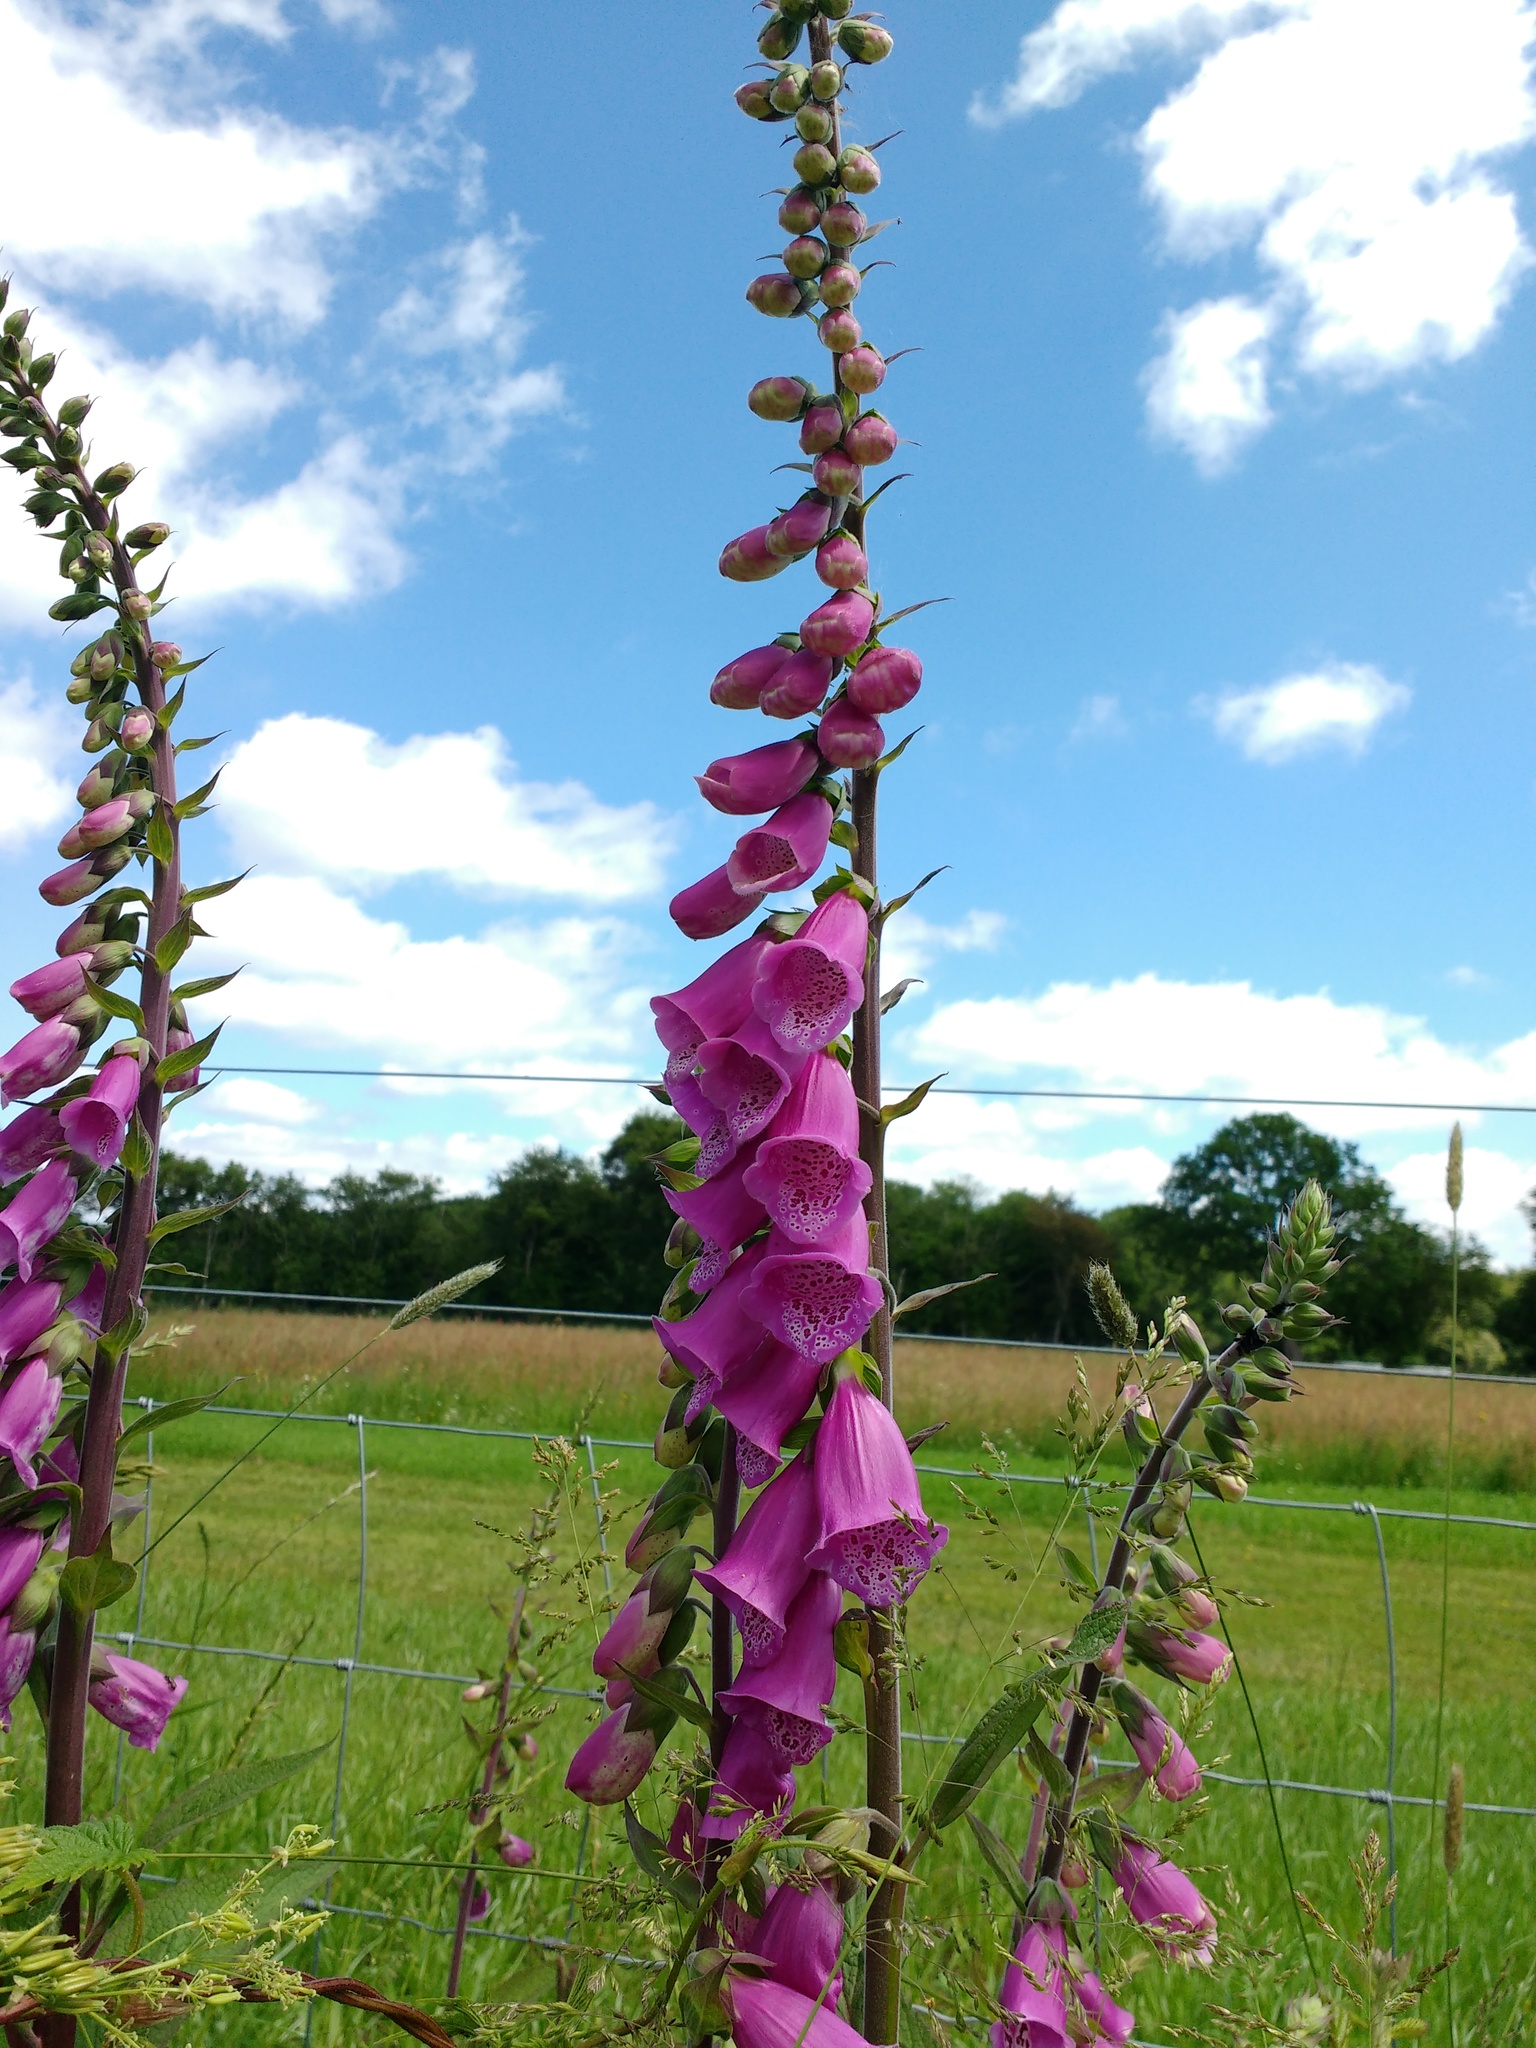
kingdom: Plantae
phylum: Tracheophyta
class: Magnoliopsida
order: Lamiales
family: Plantaginaceae
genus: Digitalis
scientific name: Digitalis purpurea
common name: Foxglove
